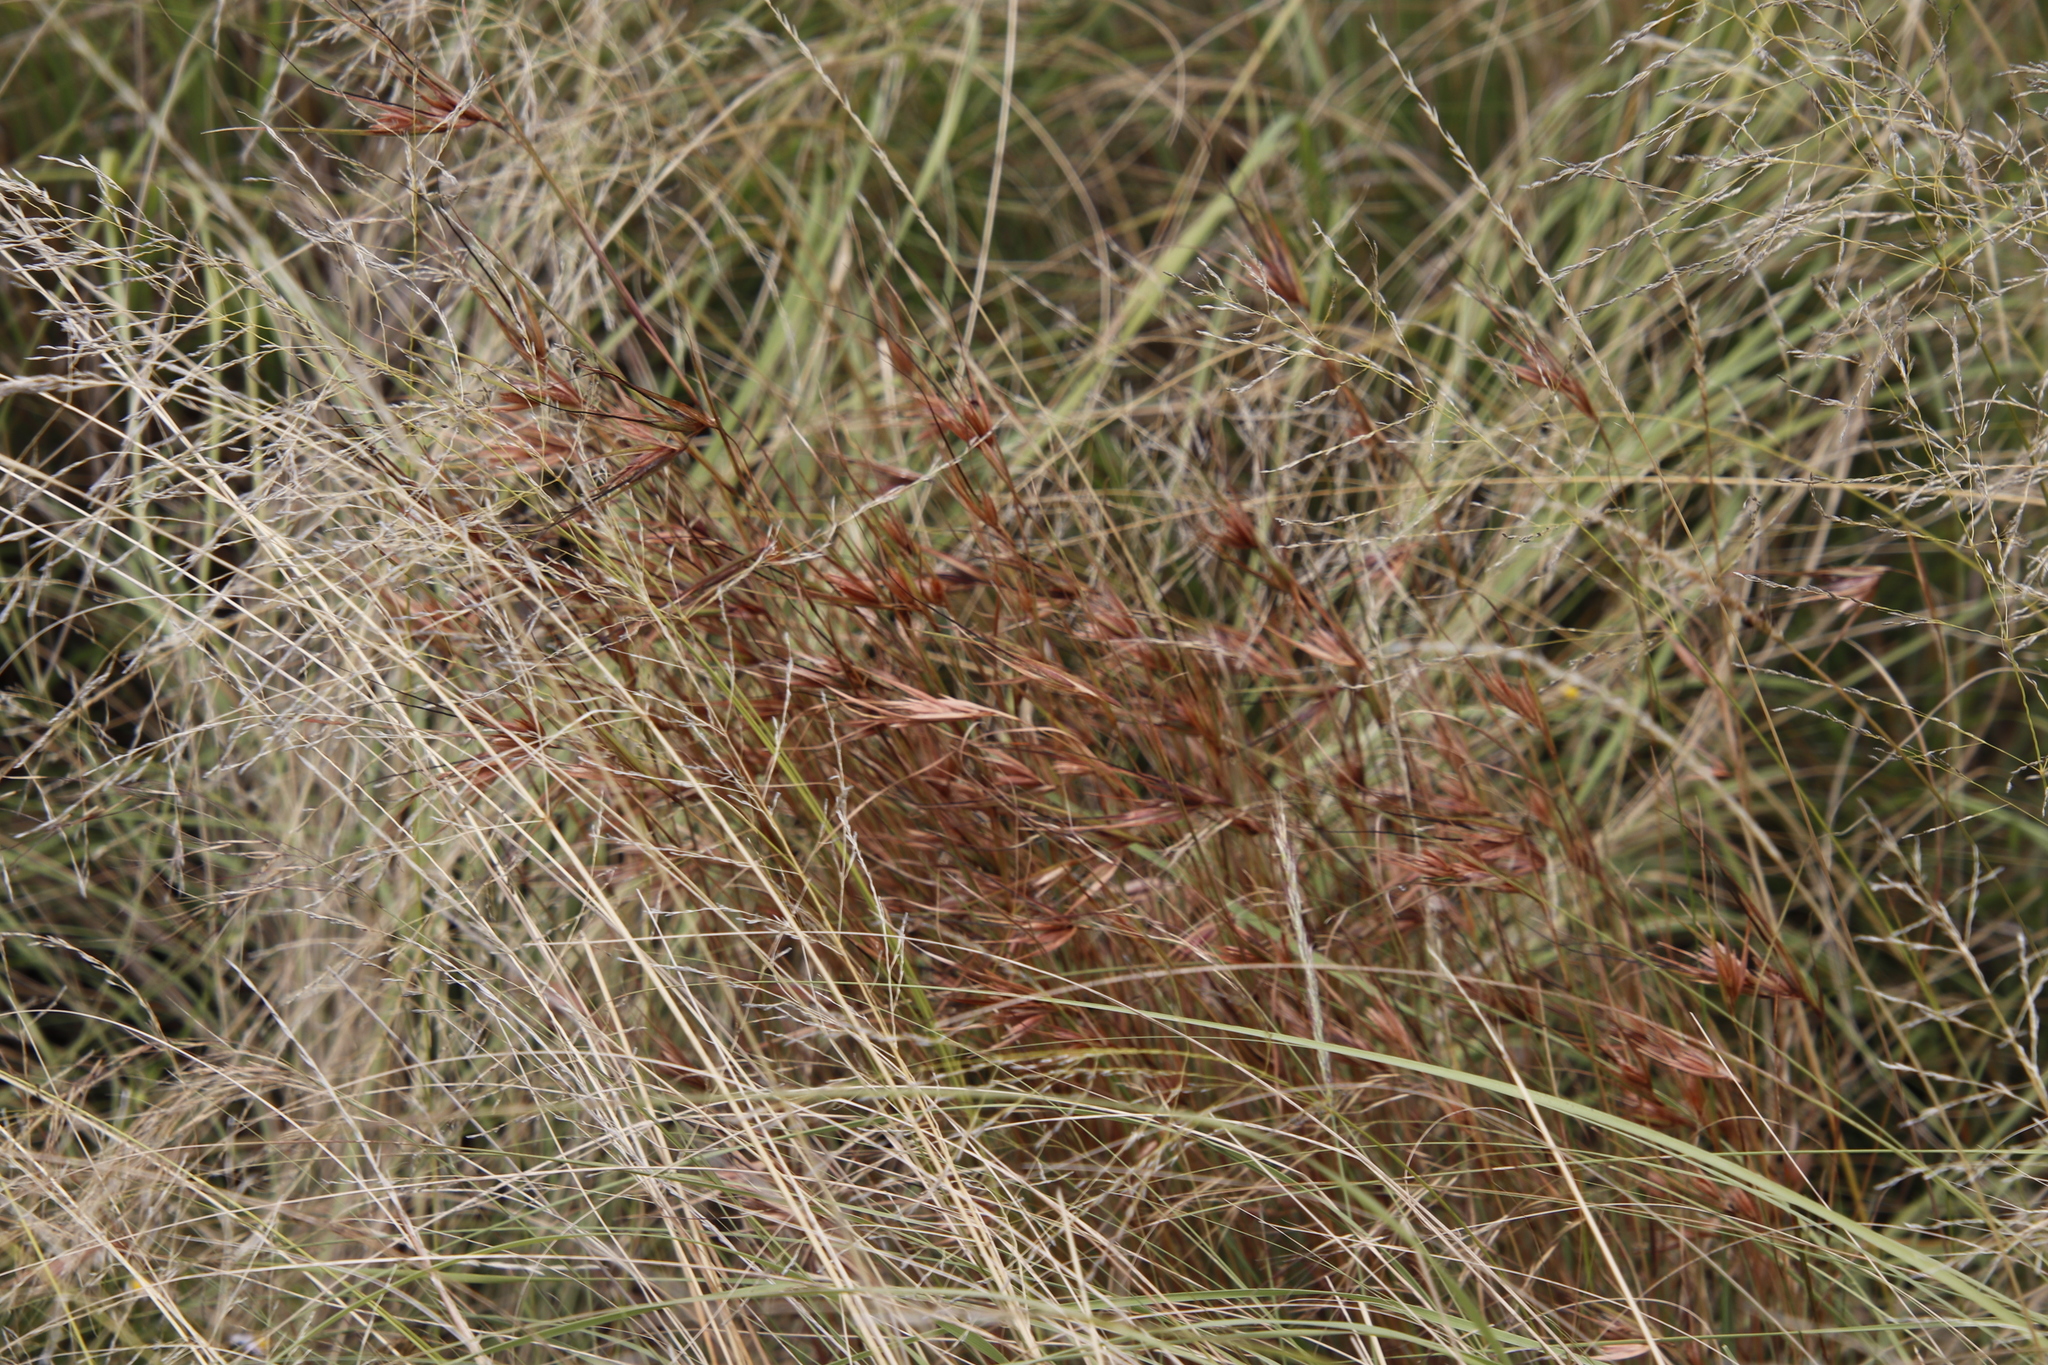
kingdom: Plantae
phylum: Tracheophyta
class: Liliopsida
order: Poales
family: Poaceae
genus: Themeda
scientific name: Themeda triandra
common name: Kangaroo grass
